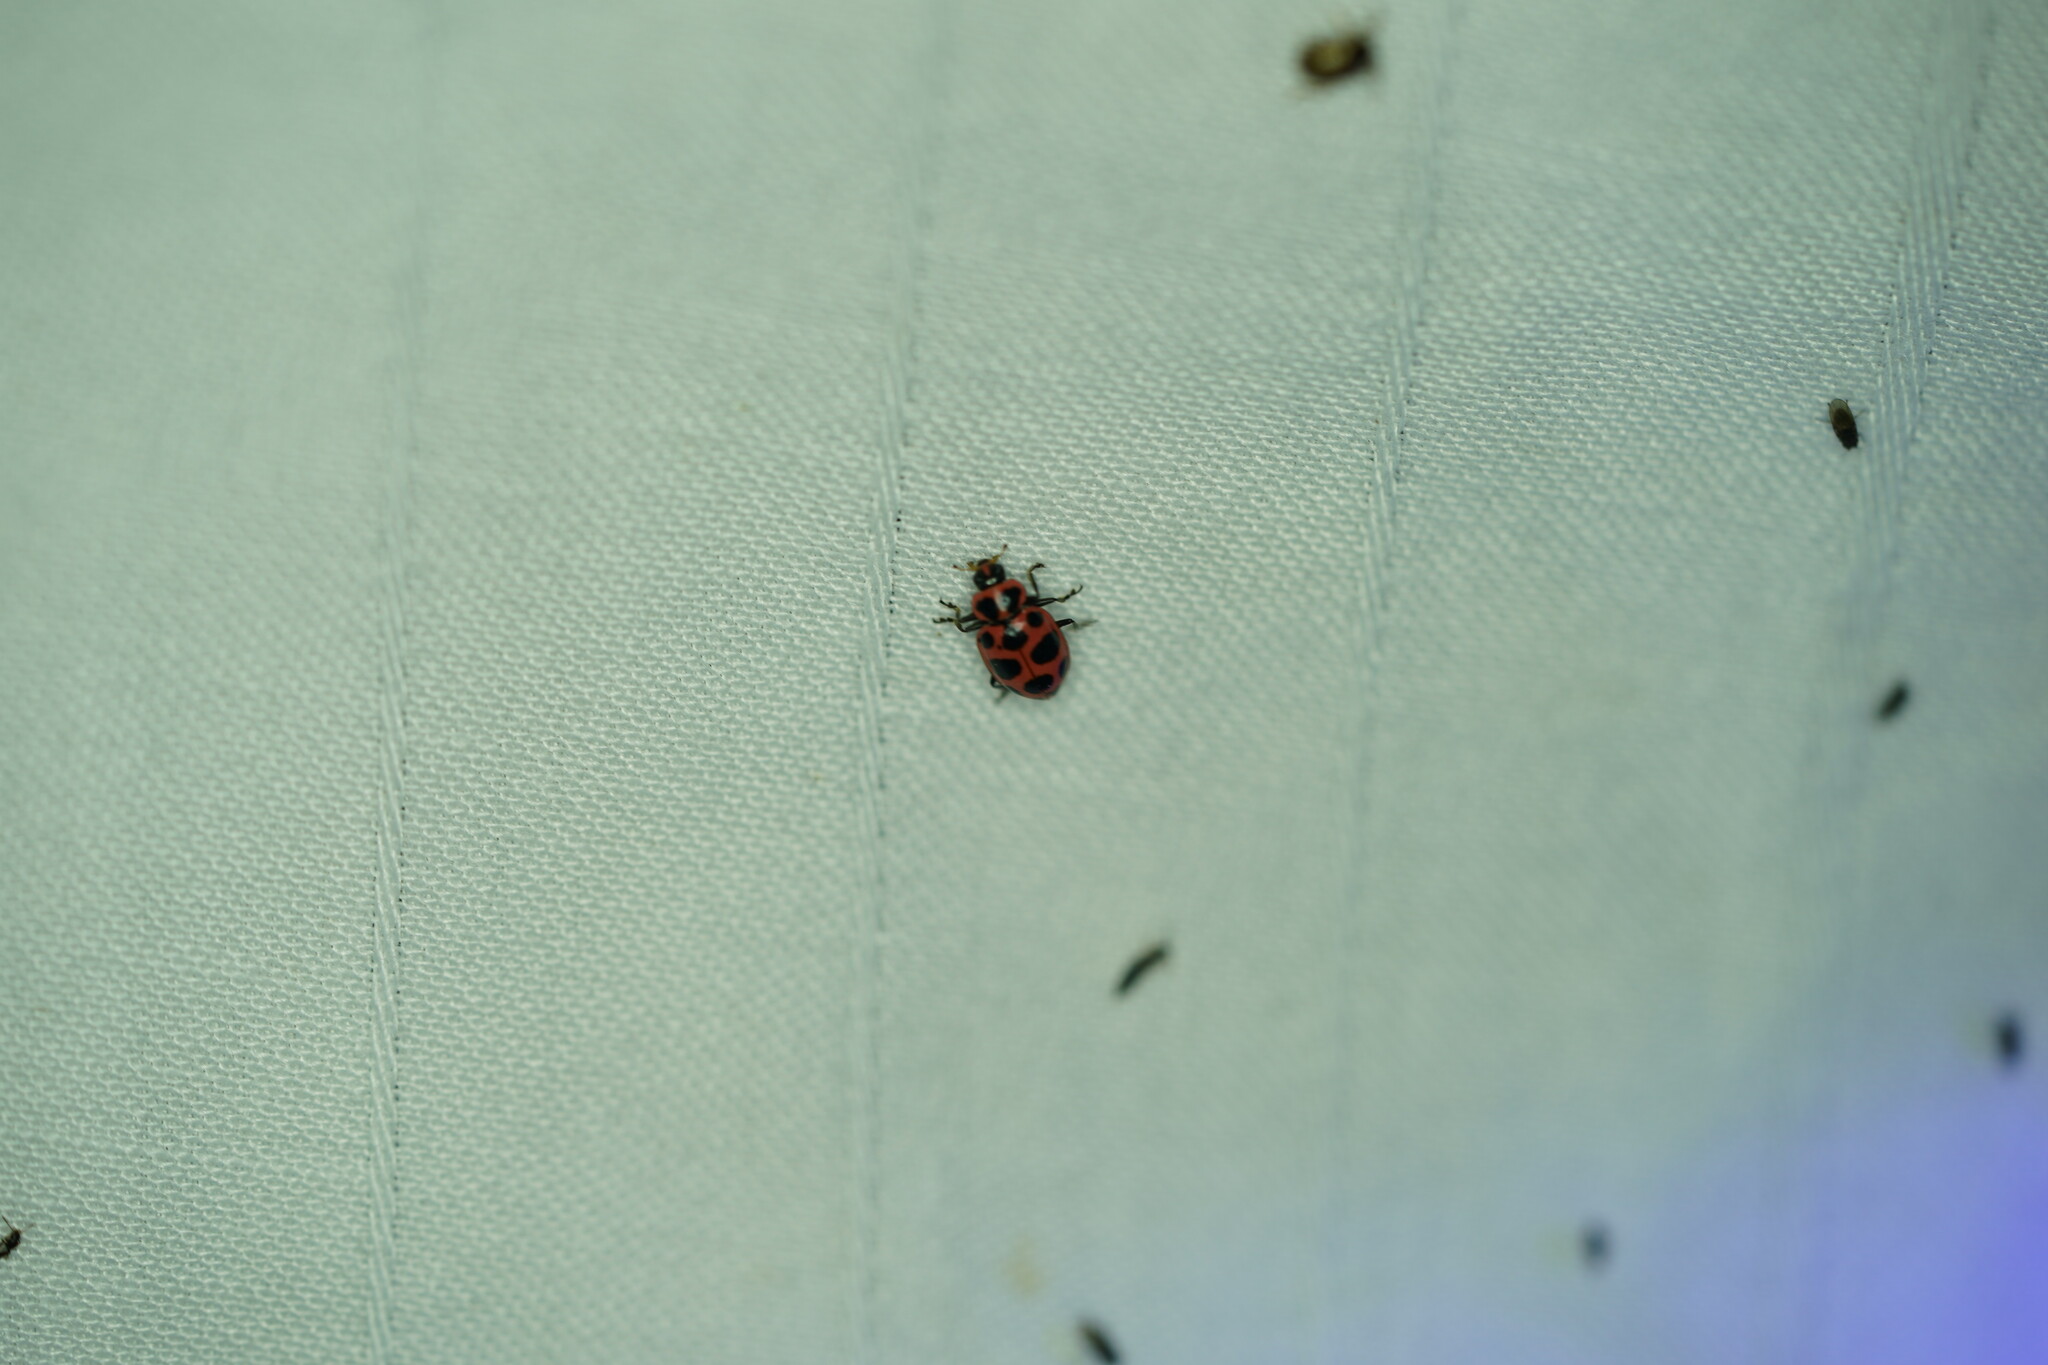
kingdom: Animalia
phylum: Arthropoda
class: Insecta
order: Coleoptera
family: Coccinellidae
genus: Coleomegilla
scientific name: Coleomegilla maculata
